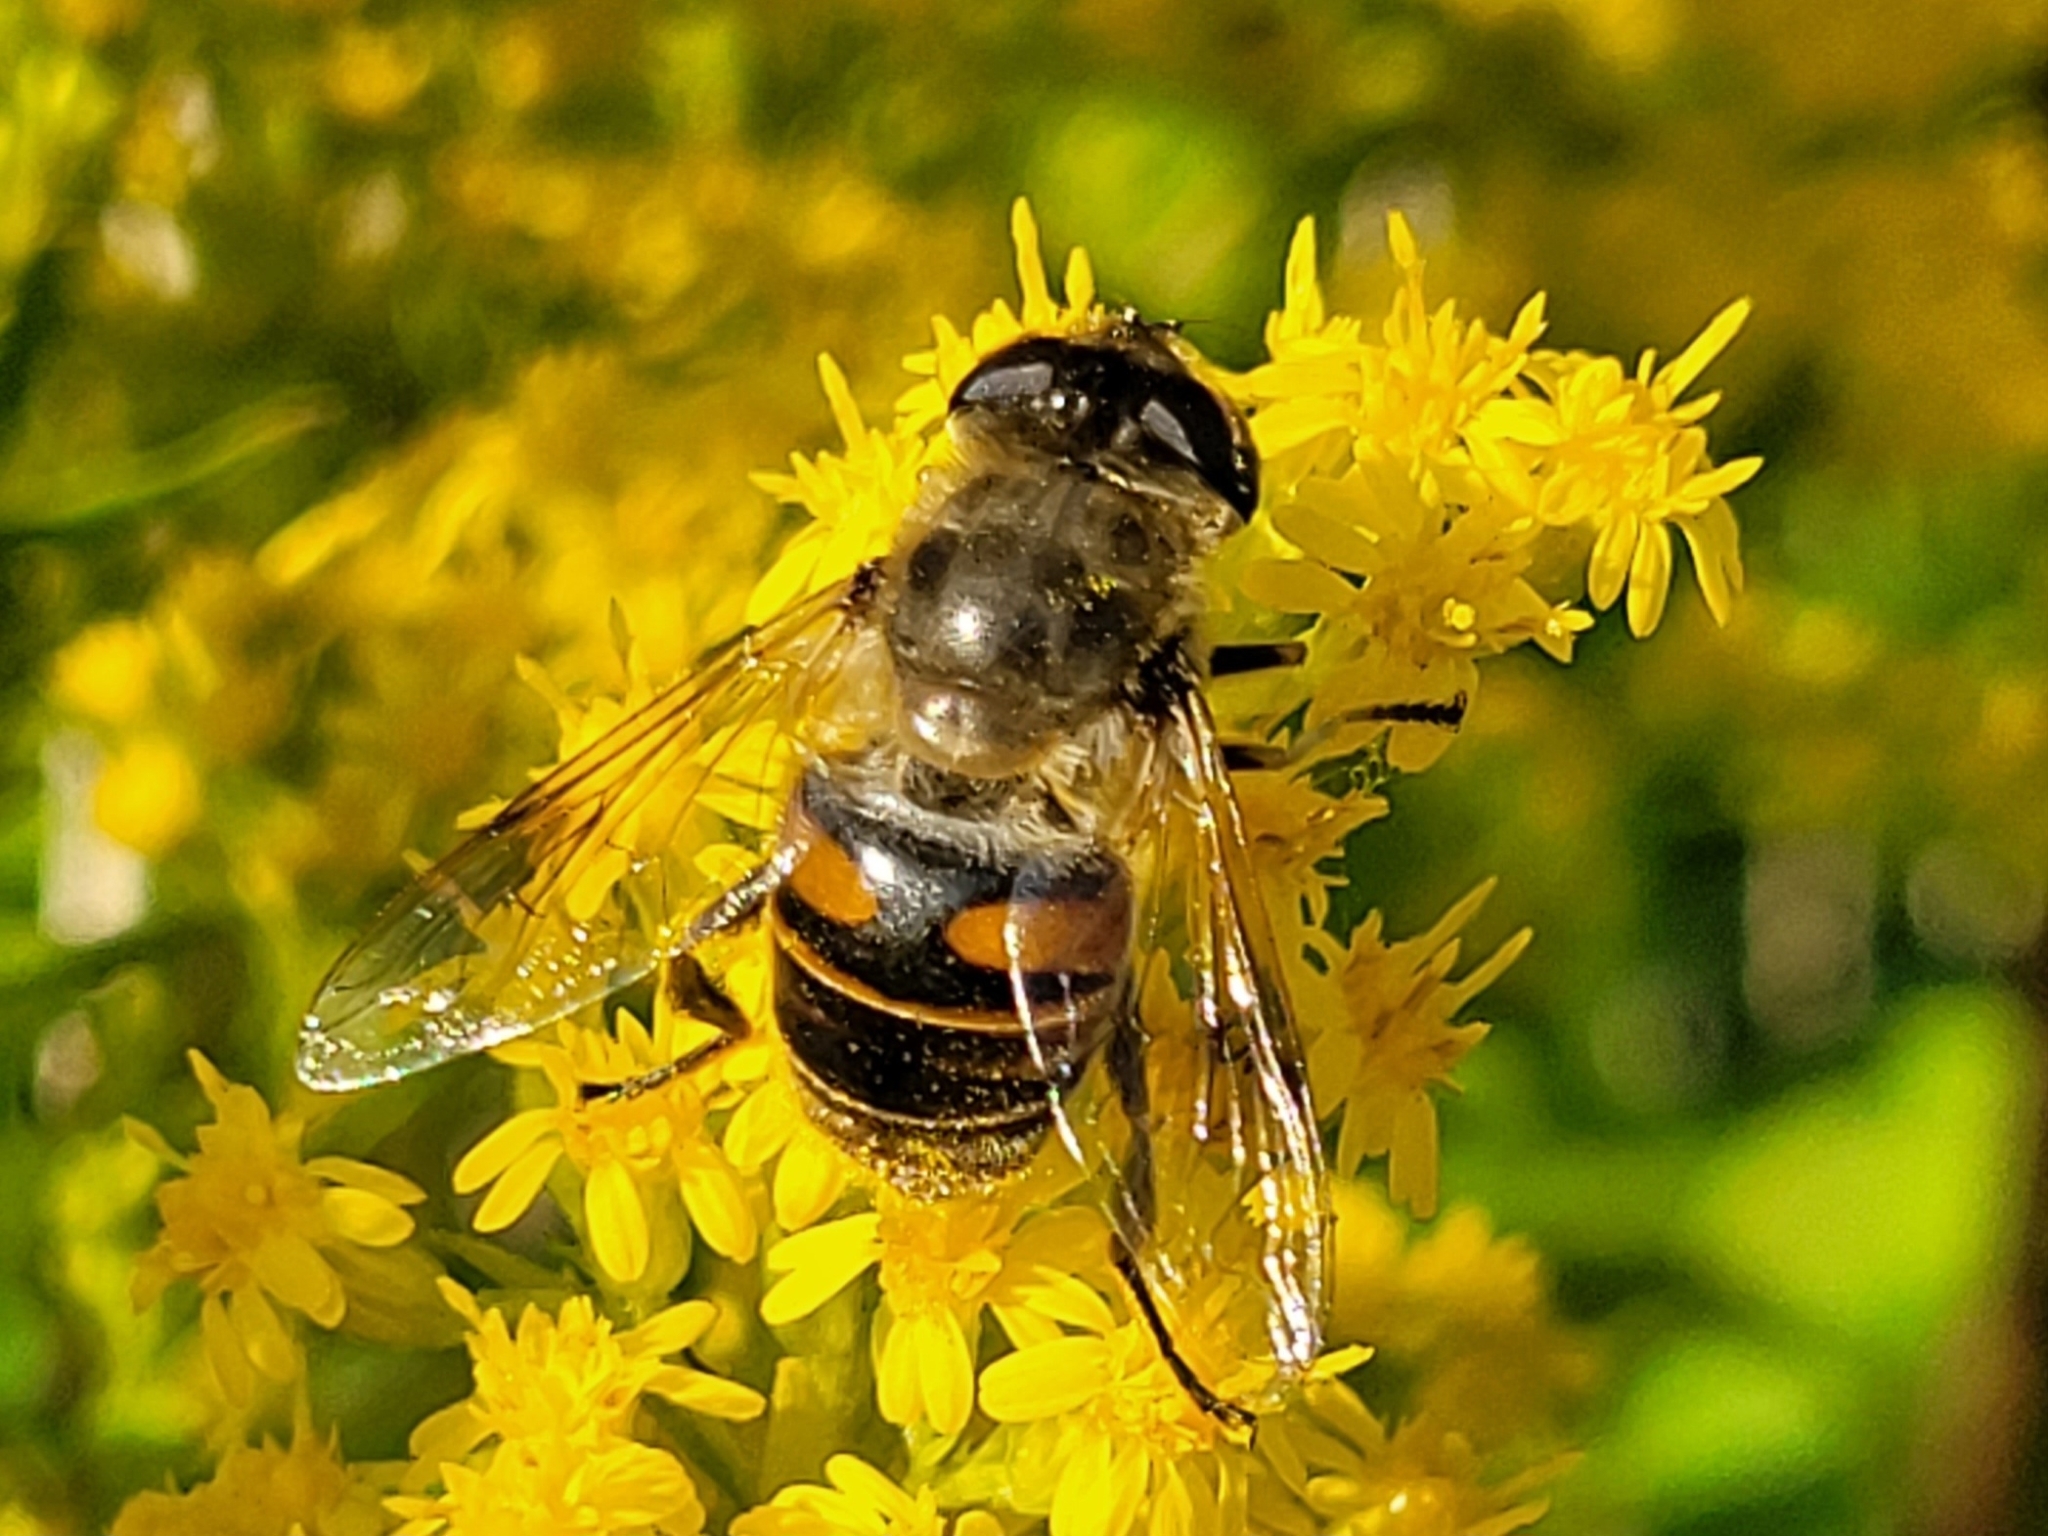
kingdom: Animalia
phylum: Arthropoda
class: Insecta
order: Diptera
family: Syrphidae
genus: Eristalis
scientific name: Eristalis tenax
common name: Drone fly
